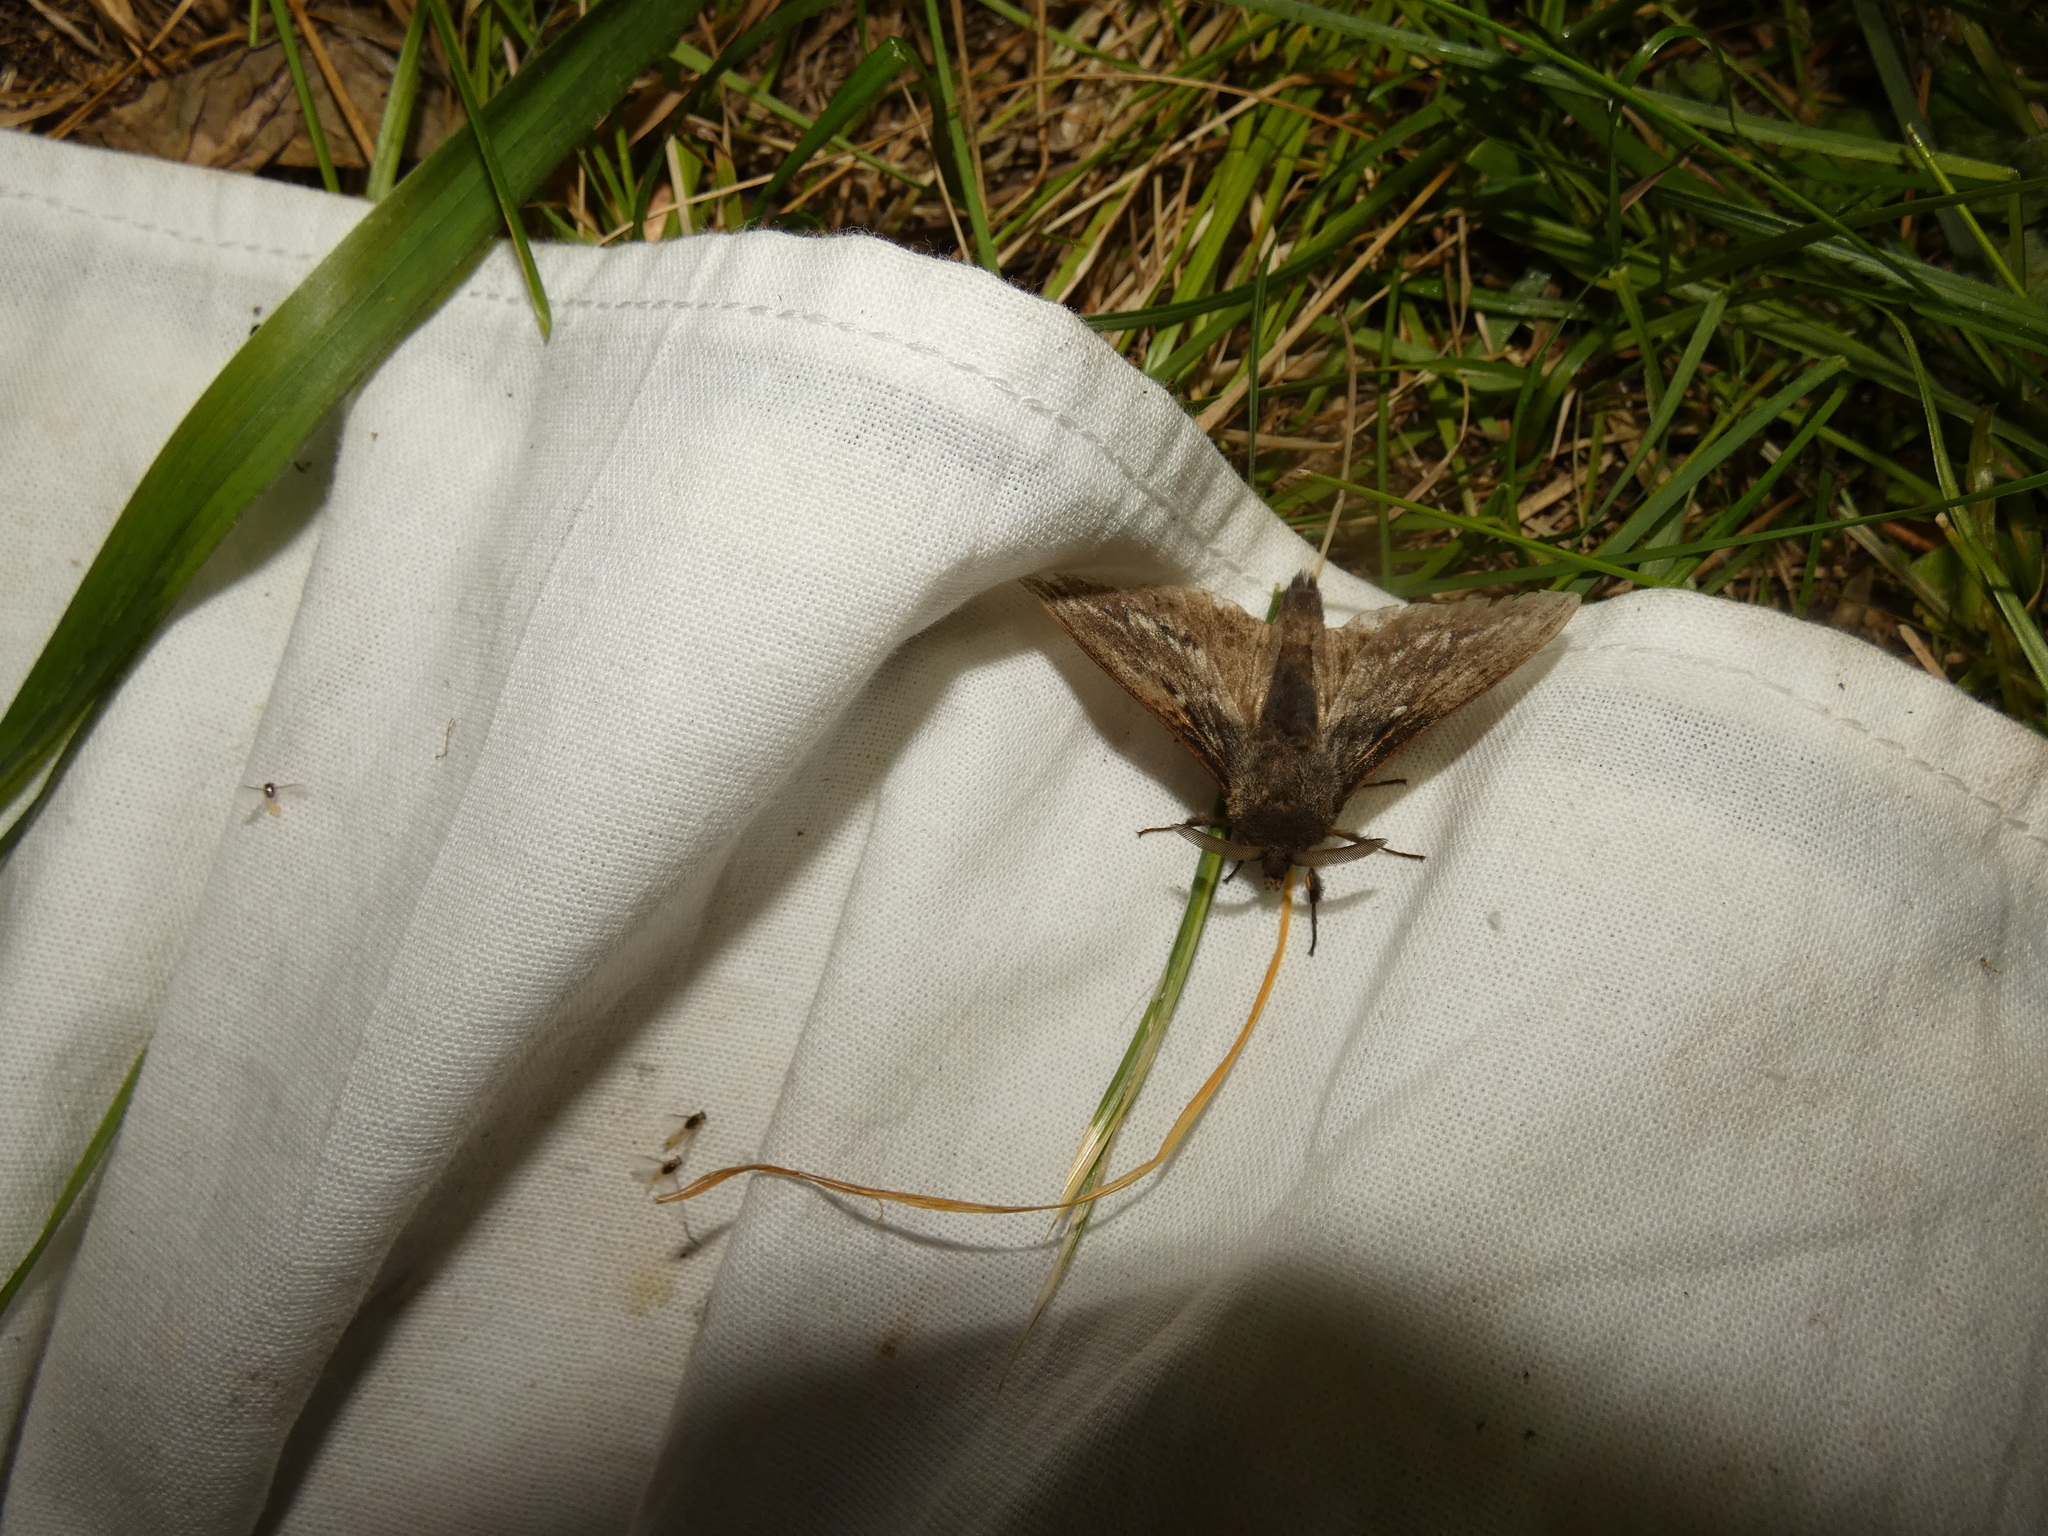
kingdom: Animalia
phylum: Arthropoda
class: Insecta
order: Lepidoptera
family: Lasiocampidae
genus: Dendrolimus
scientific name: Dendrolimus pini
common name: Pine-tree lappet
